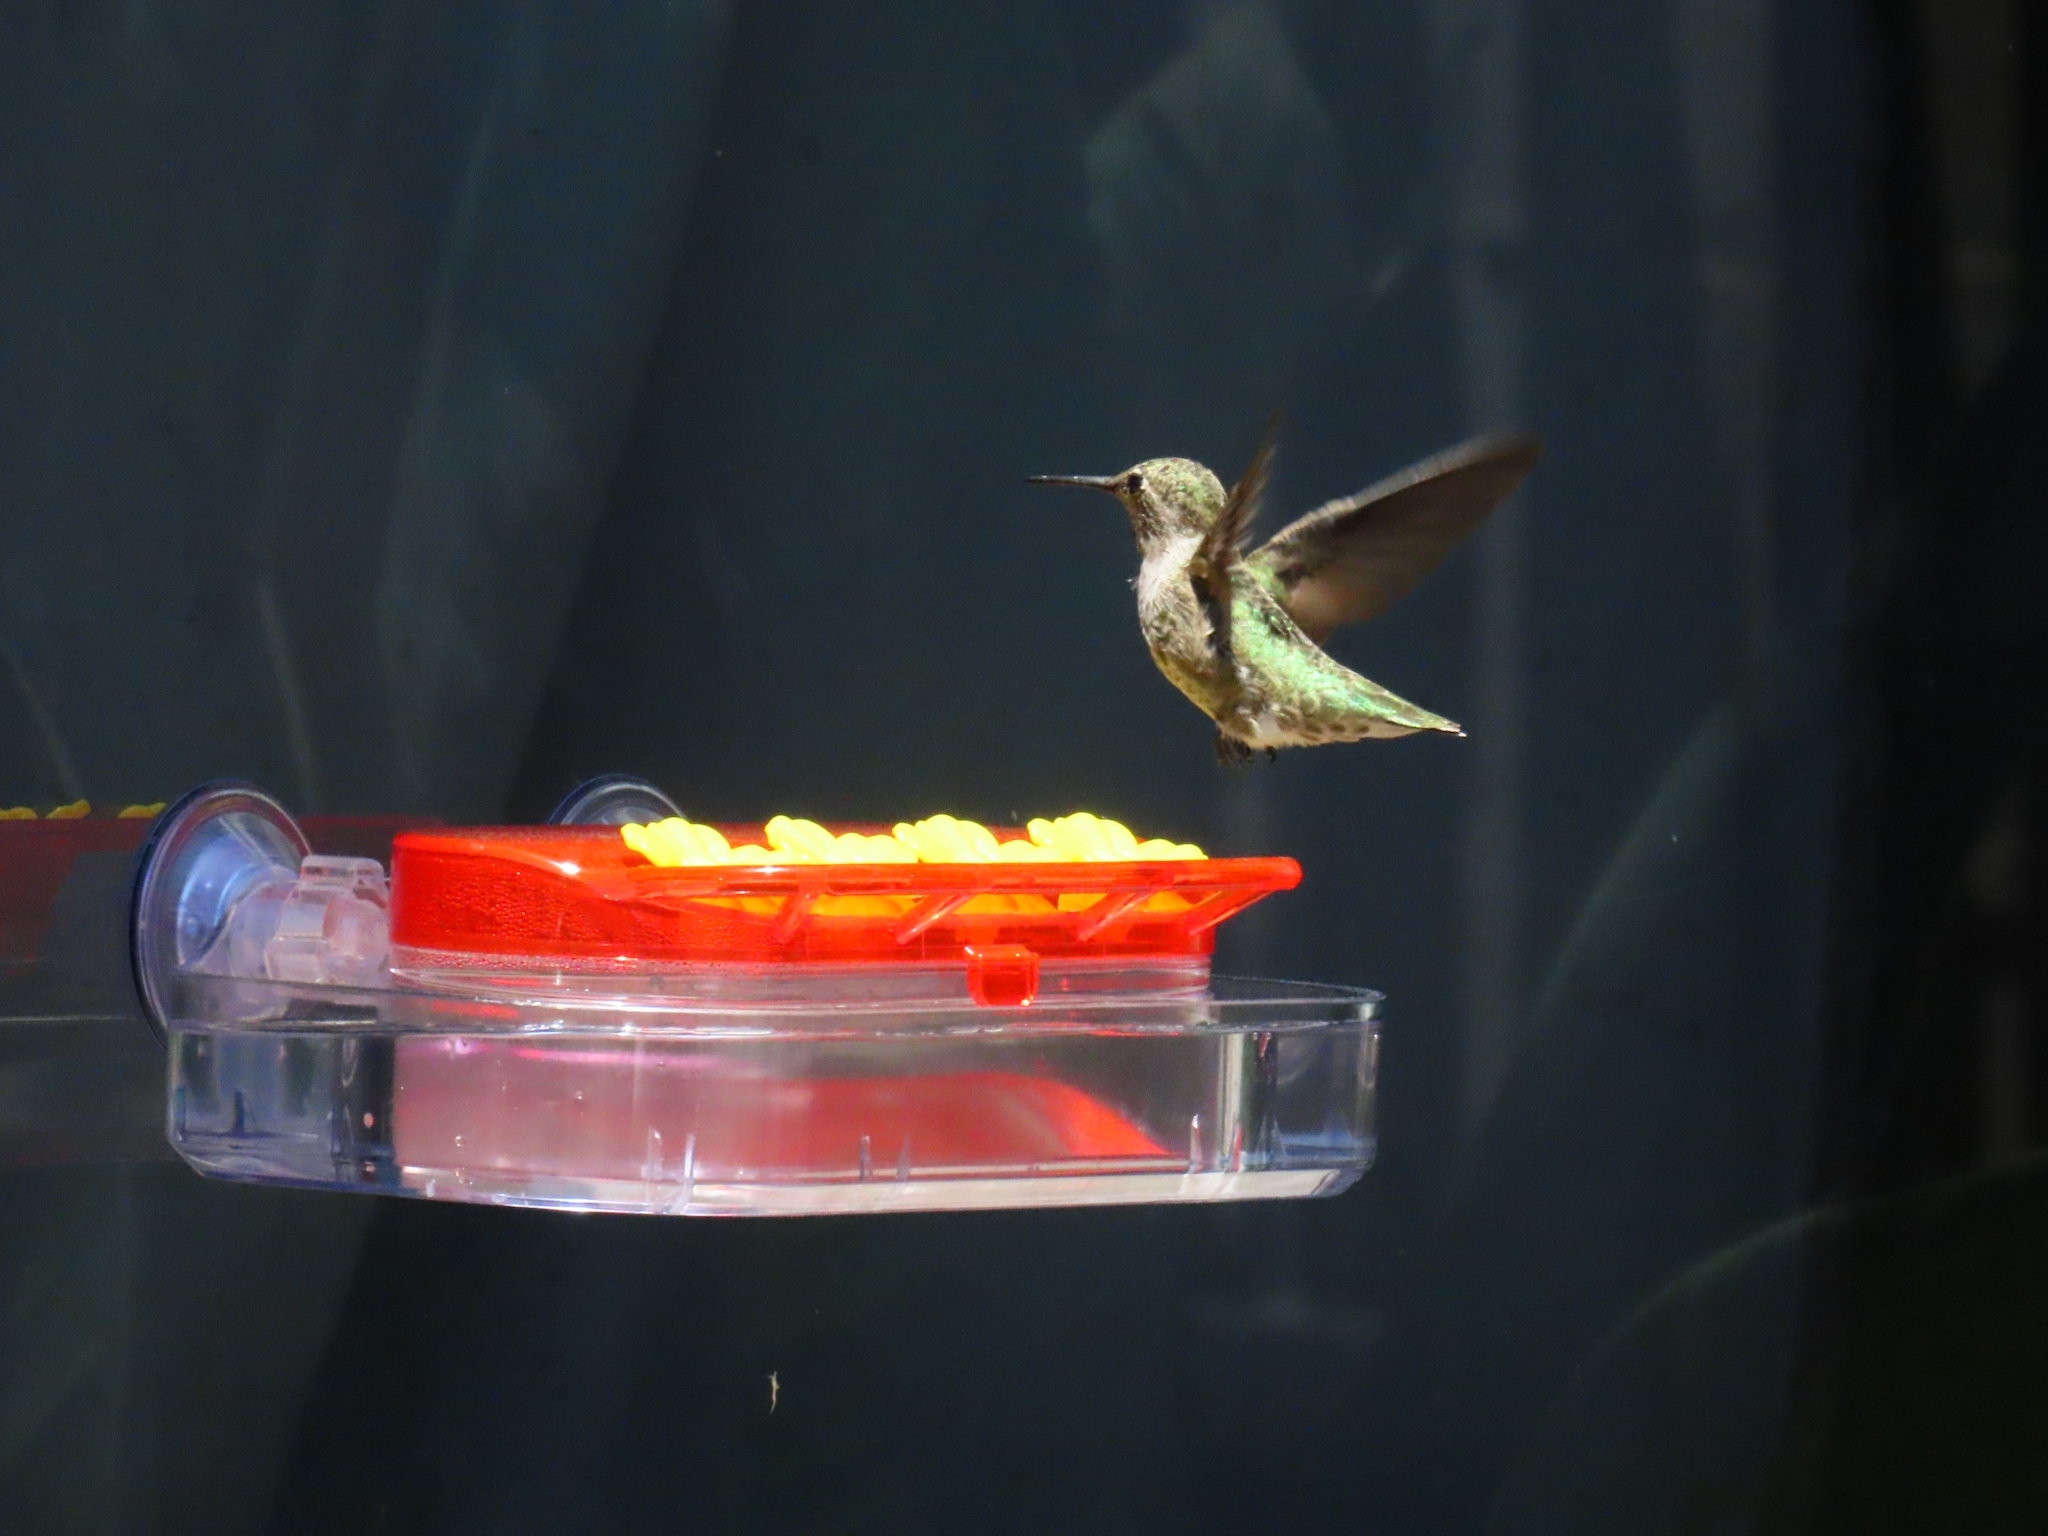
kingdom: Animalia
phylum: Chordata
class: Aves
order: Apodiformes
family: Trochilidae
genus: Calypte
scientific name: Calypte anna
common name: Anna's hummingbird
